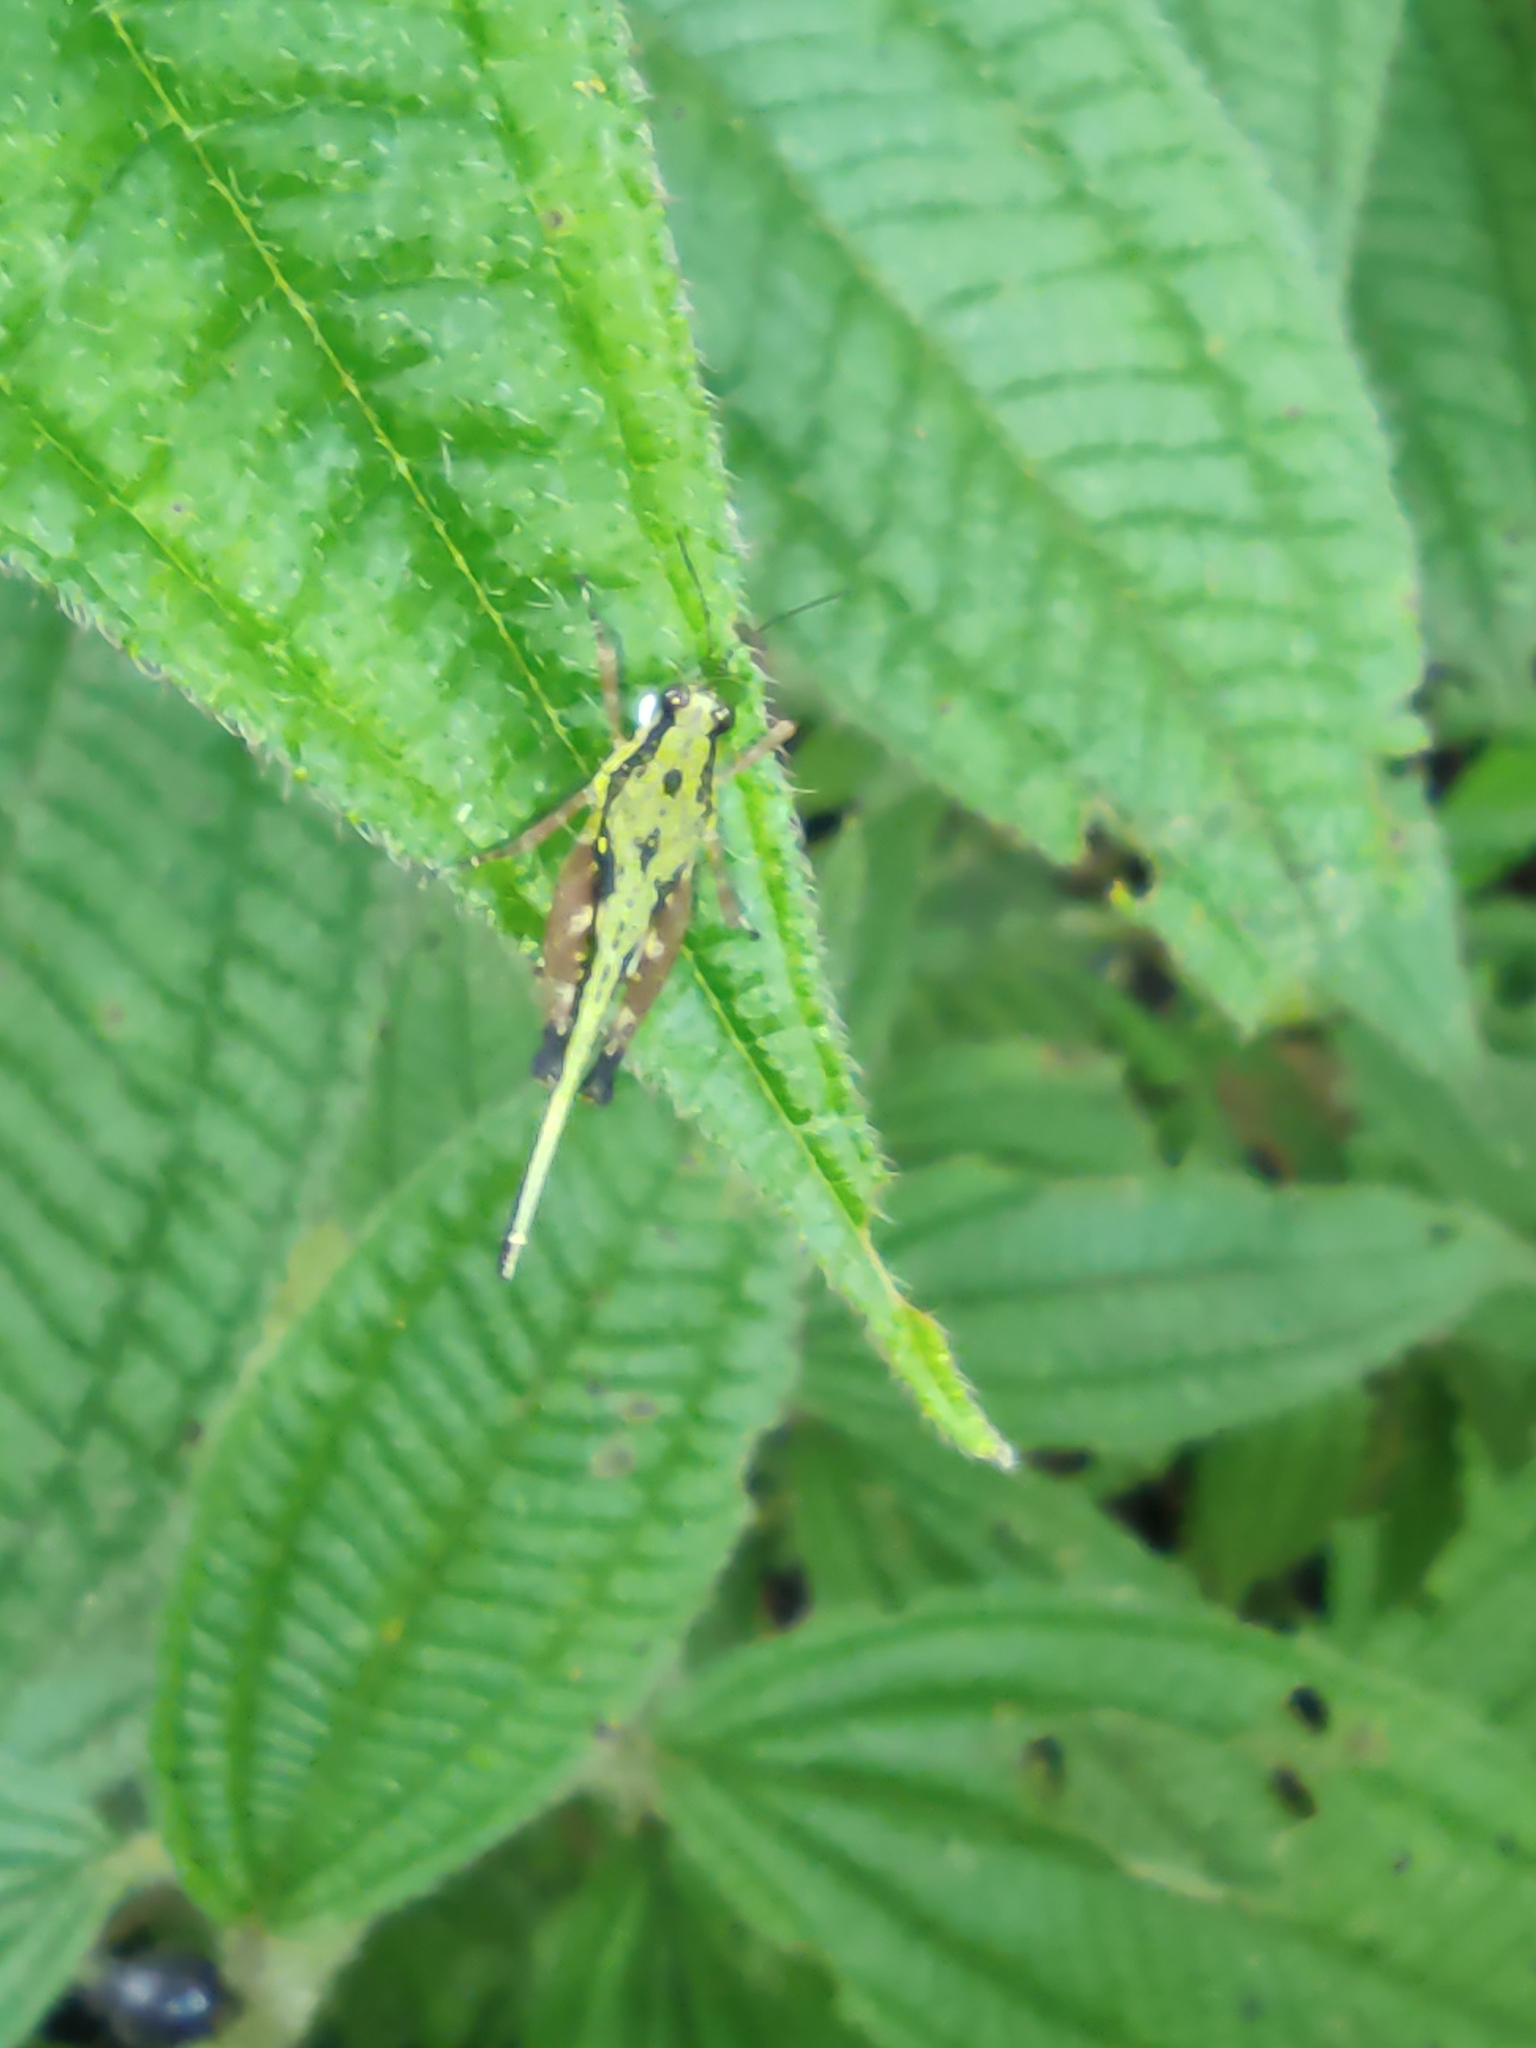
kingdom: Animalia
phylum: Arthropoda
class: Insecta
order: Orthoptera
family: Tetrigidae
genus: Scaria
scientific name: Scaria fasciata
